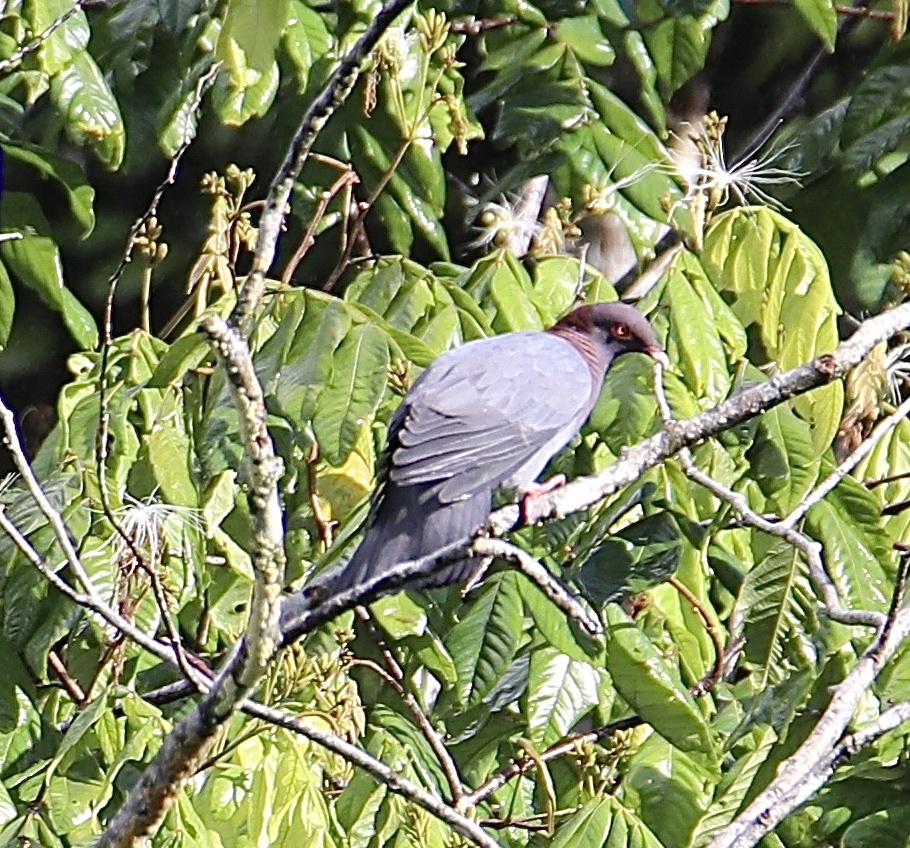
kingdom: Animalia
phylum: Chordata
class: Aves
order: Columbiformes
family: Columbidae
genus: Patagioenas
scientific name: Patagioenas squamosa
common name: Scaly-naped pigeon
